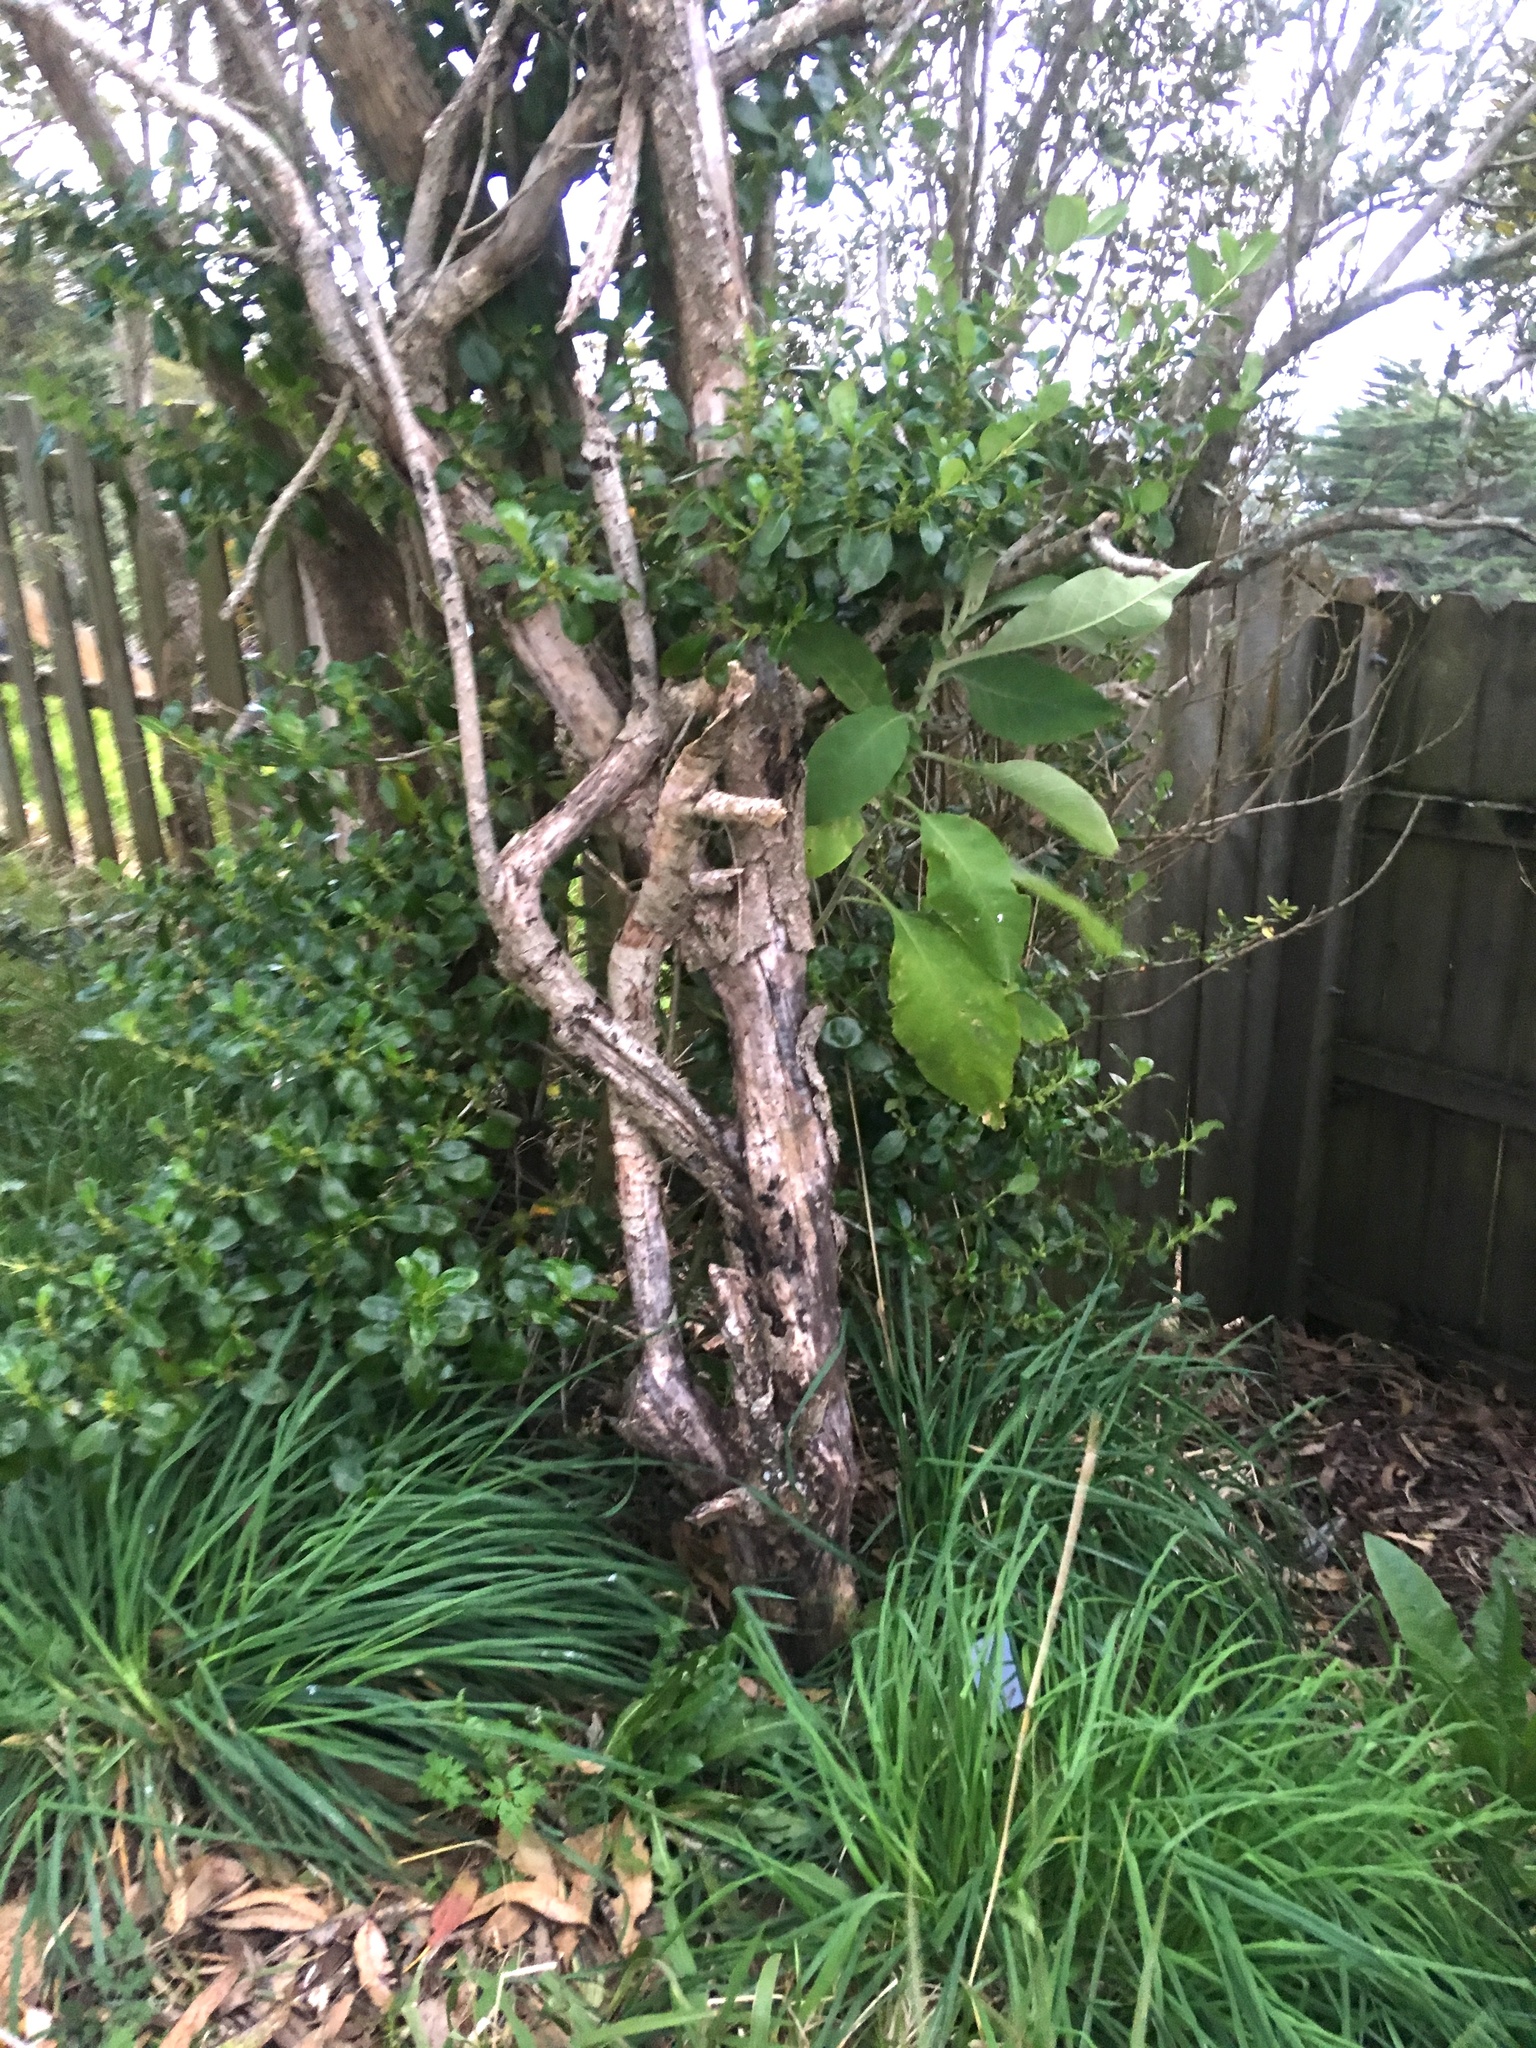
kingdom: Plantae
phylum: Tracheophyta
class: Magnoliopsida
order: Solanales
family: Solanaceae
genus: Solanum
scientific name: Solanum mauritianum
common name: Earleaf nightshade
